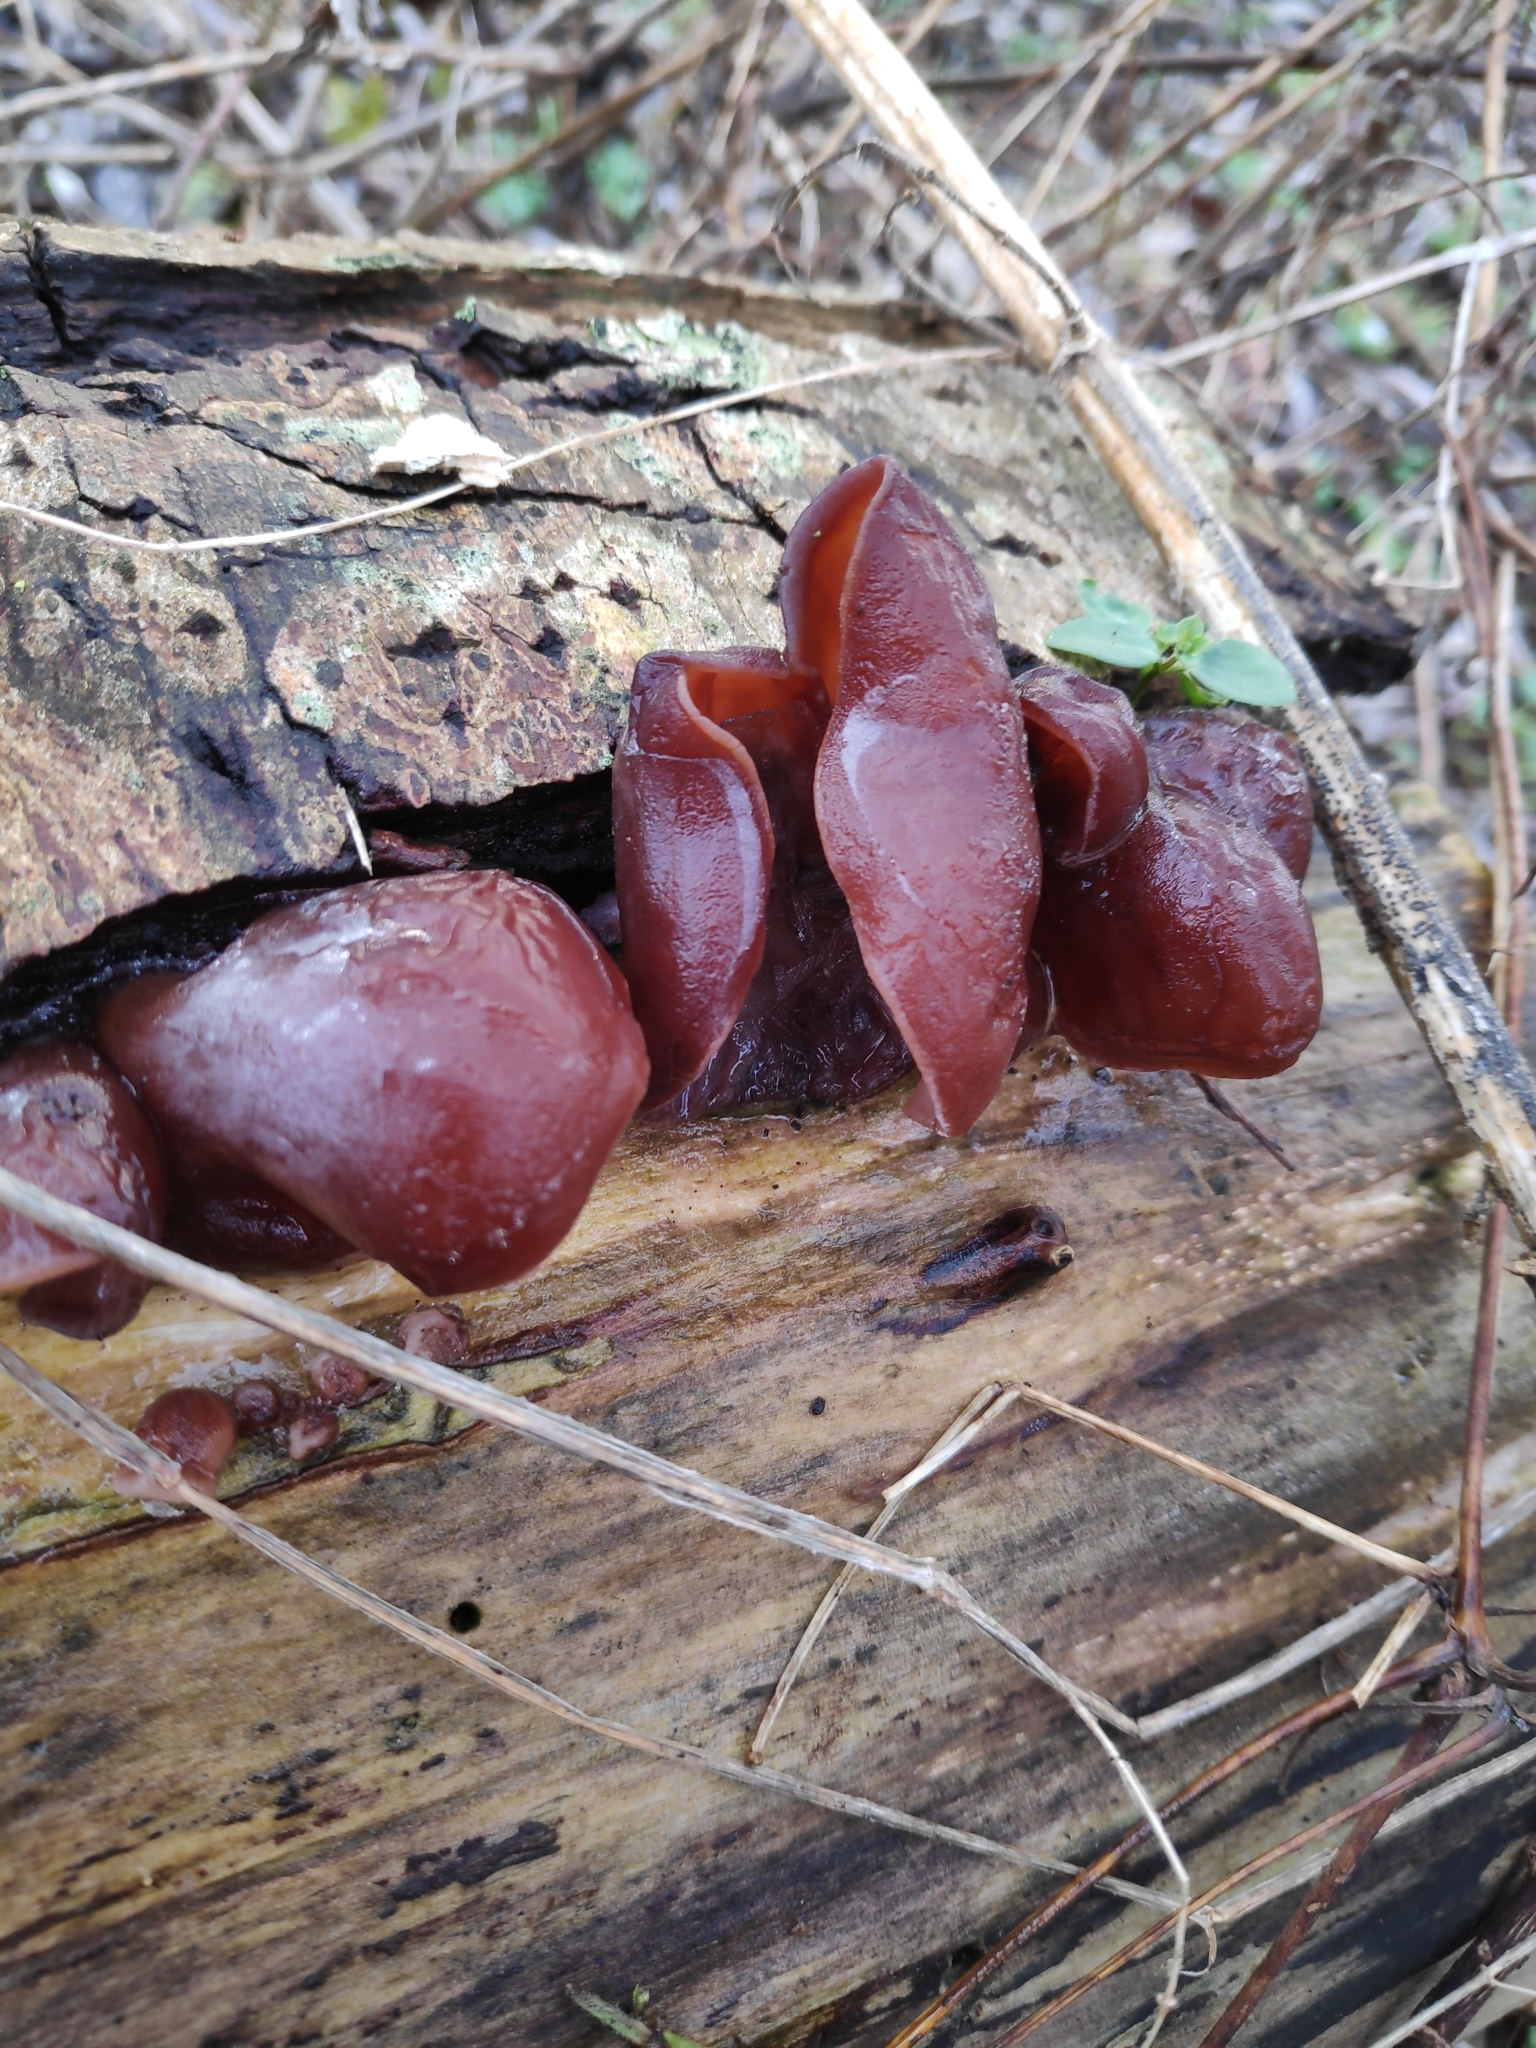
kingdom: Fungi
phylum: Basidiomycota
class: Agaricomycetes
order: Auriculariales
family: Auriculariaceae
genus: Auricularia
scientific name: Auricularia auricula-judae
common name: Jelly ear
